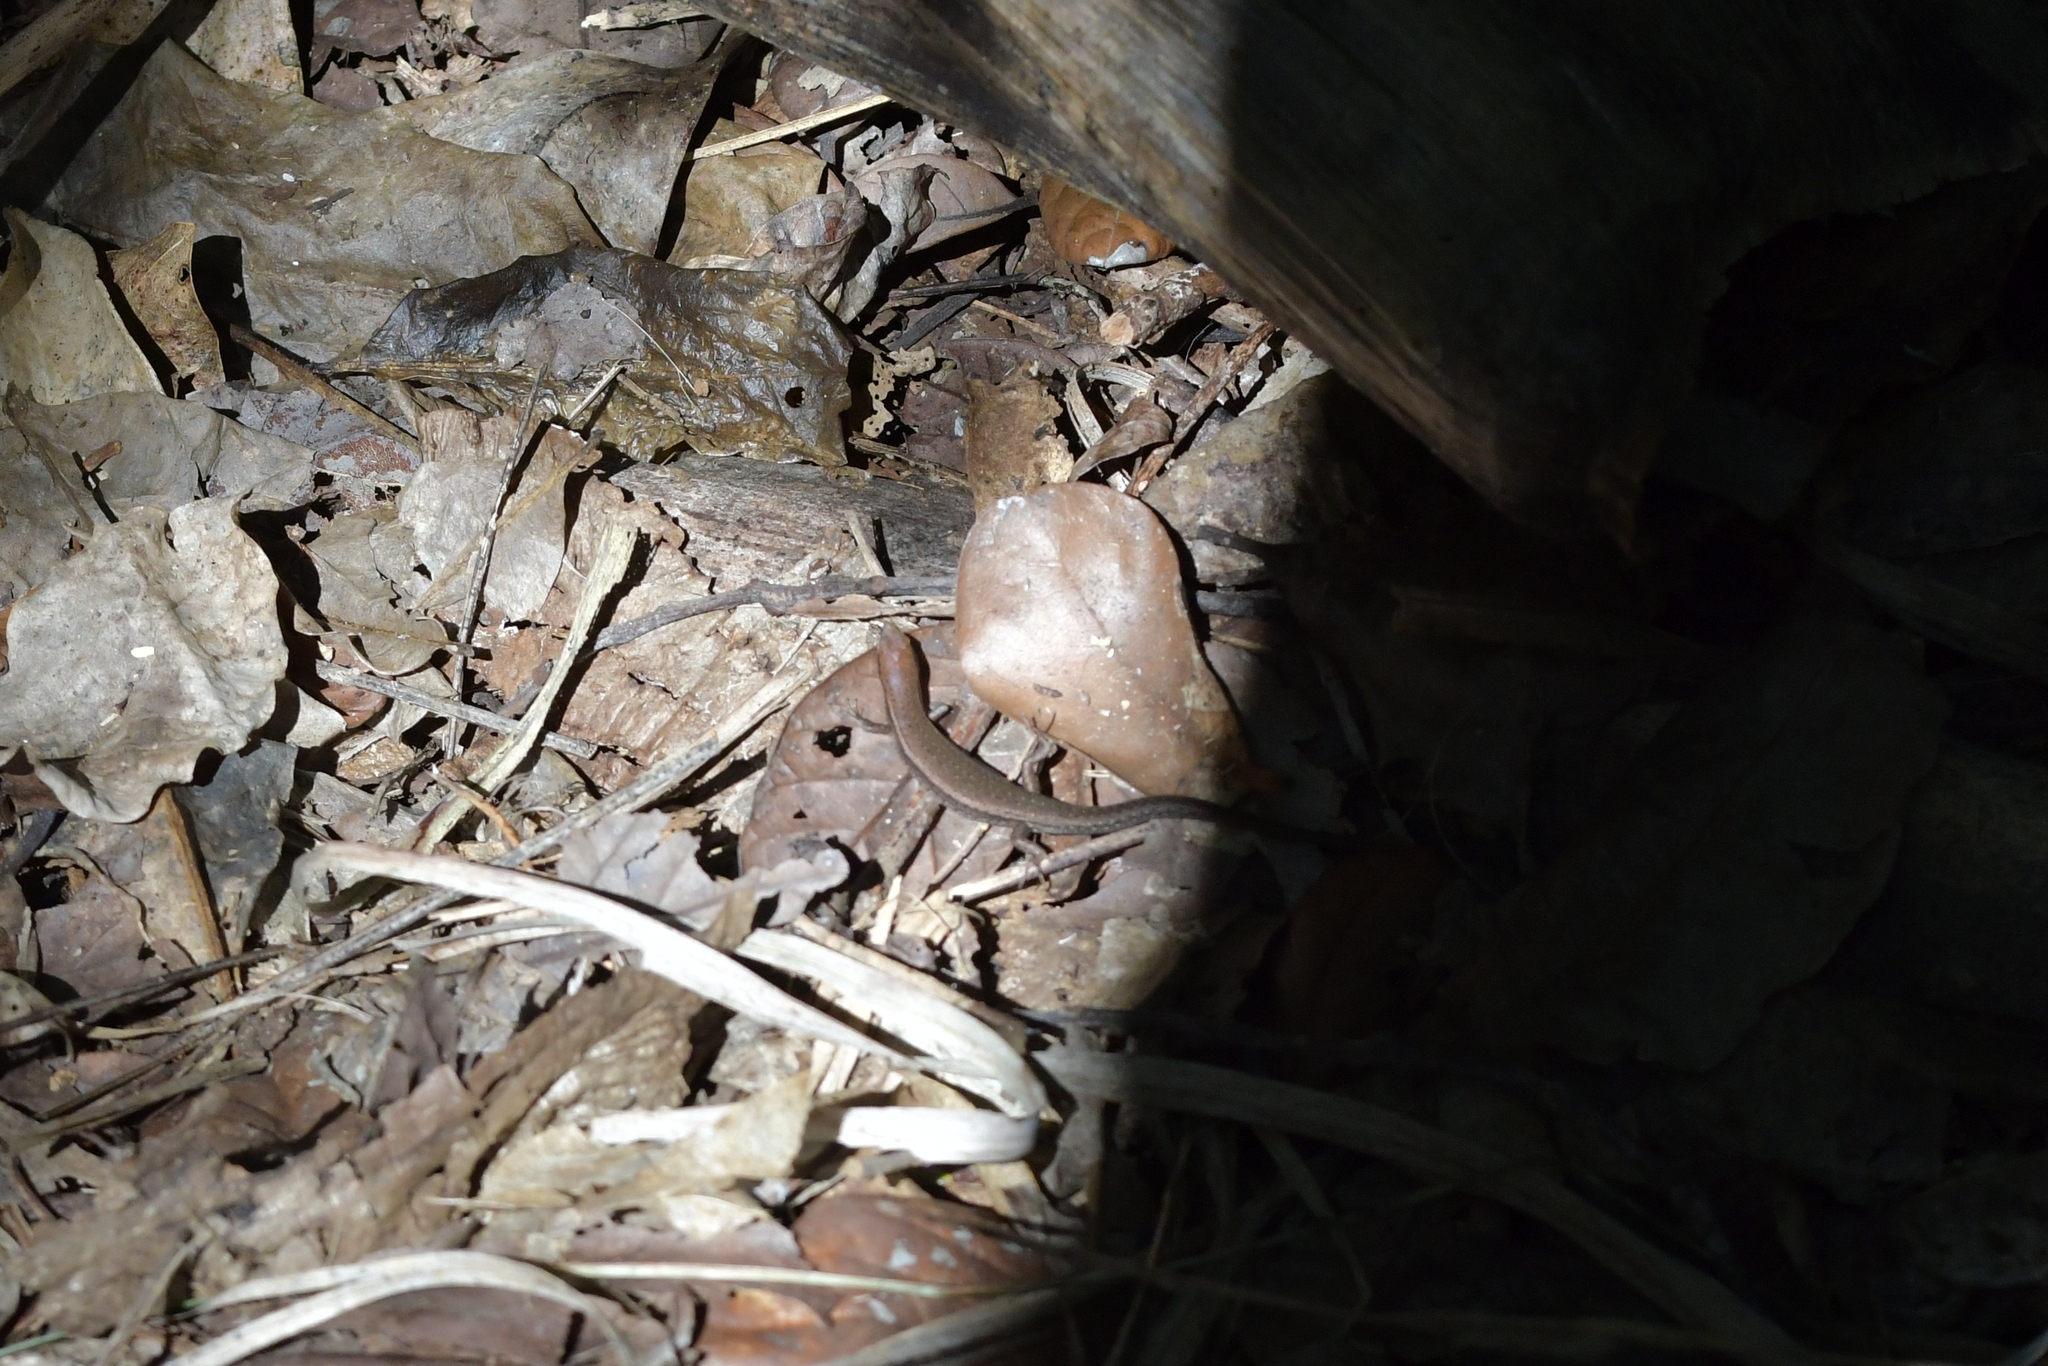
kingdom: Animalia
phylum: Chordata
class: Squamata
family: Scincidae
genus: Lampropholis
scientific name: Lampropholis delicata
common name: Plague skink
